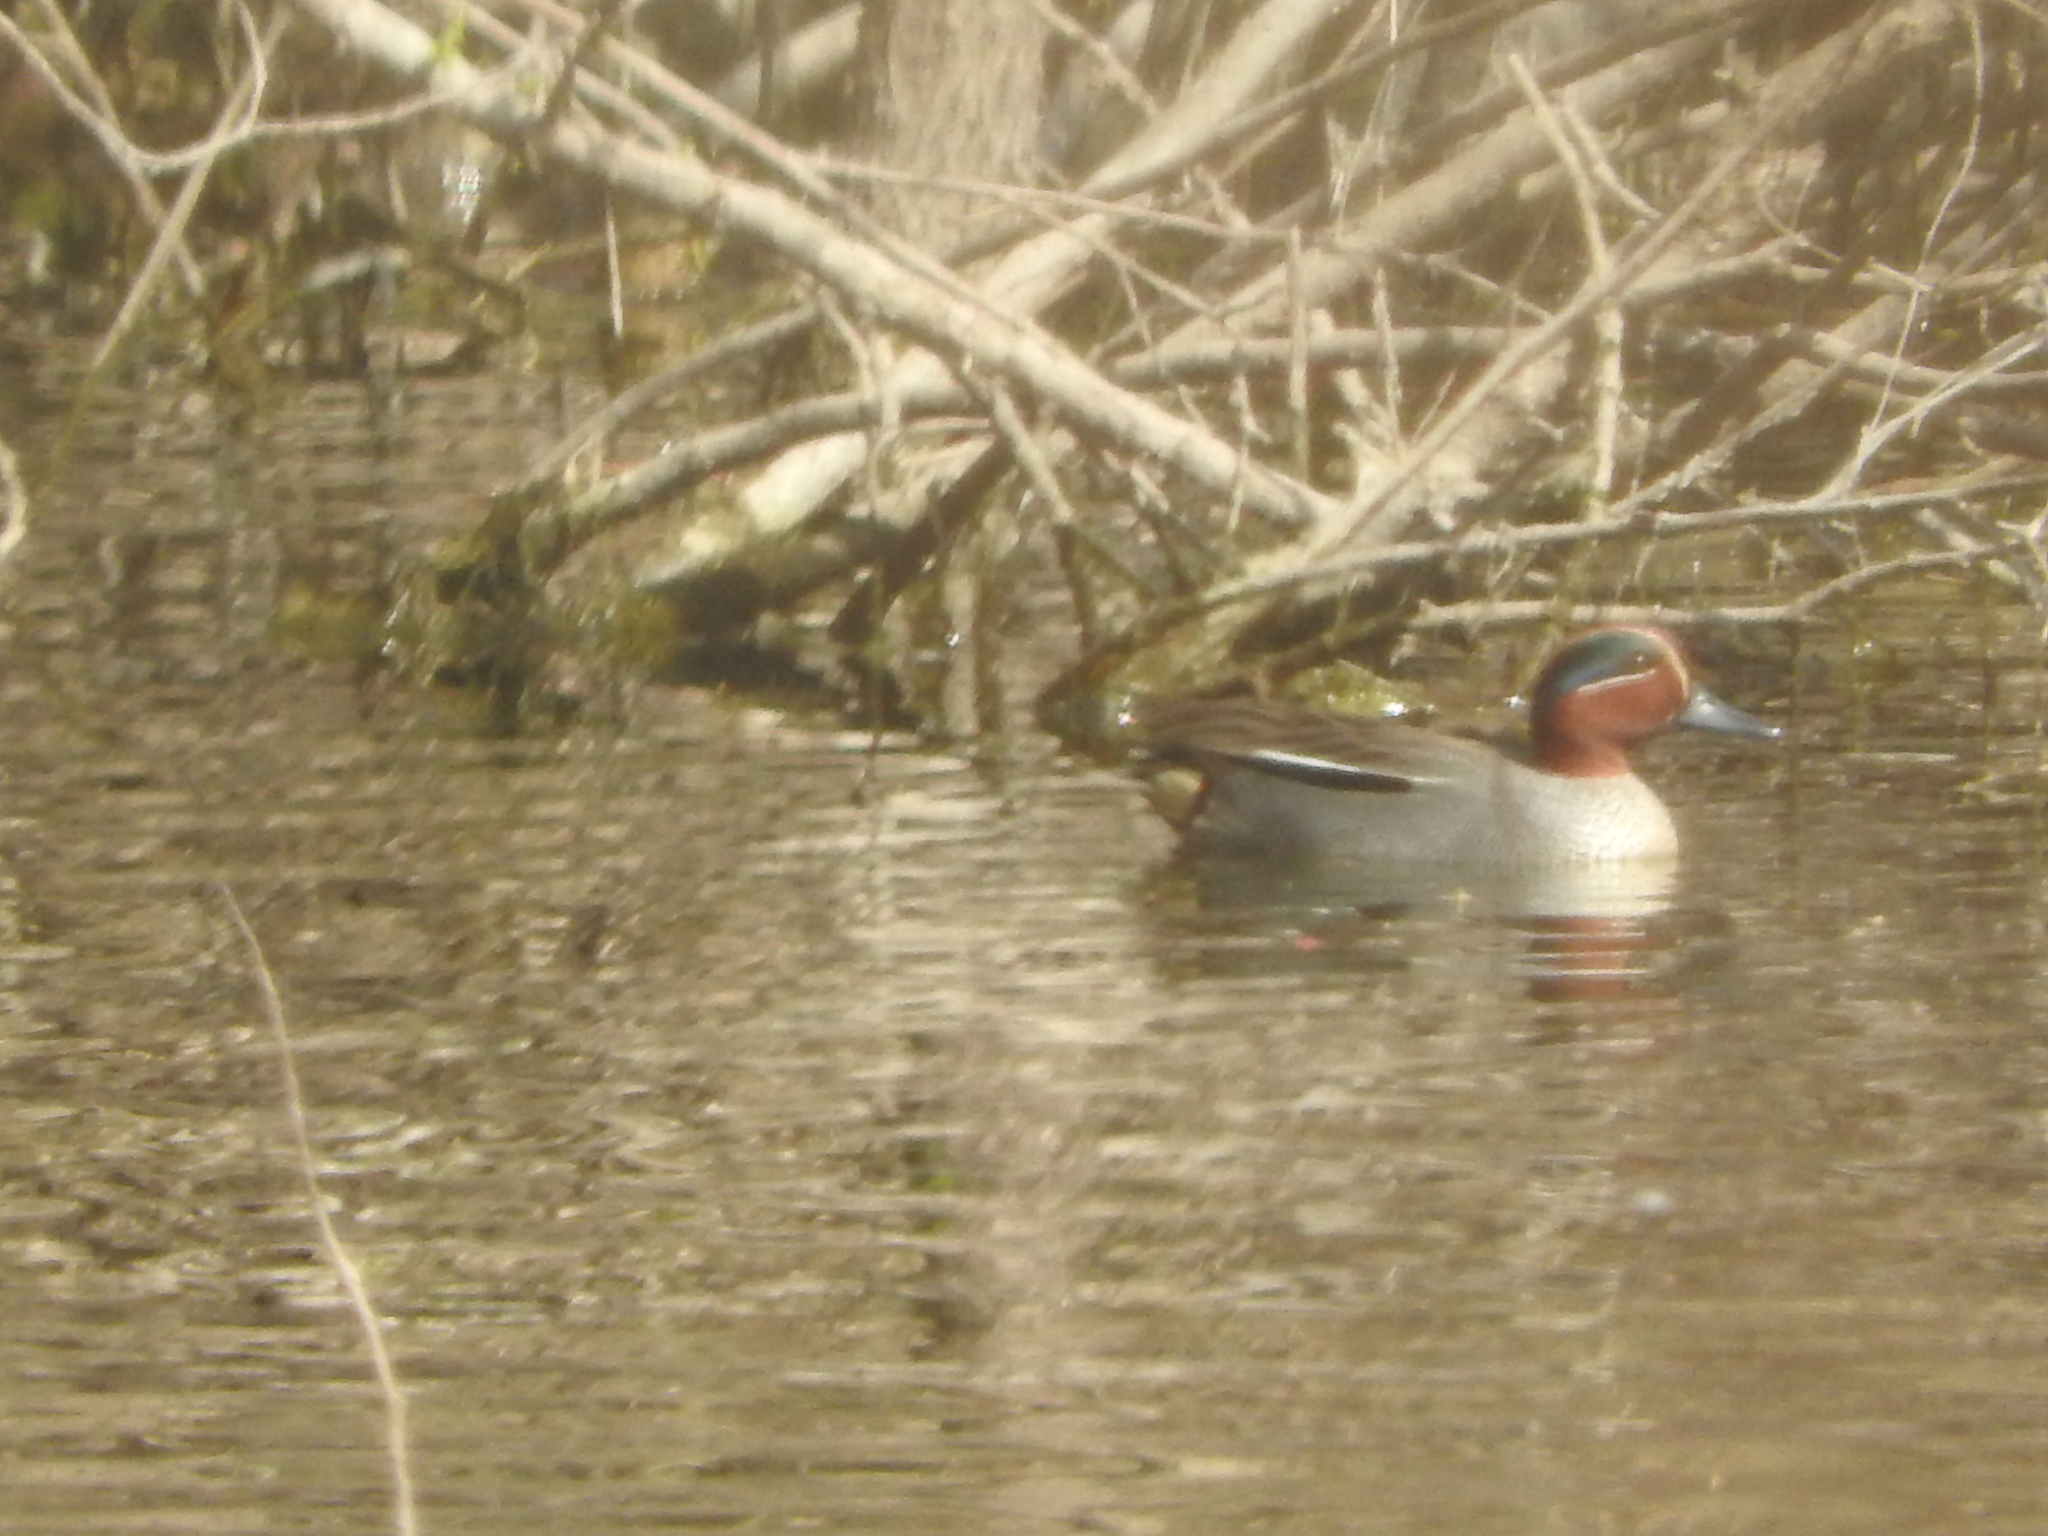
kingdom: Animalia
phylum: Chordata
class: Aves
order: Anseriformes
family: Anatidae
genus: Anas
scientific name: Anas crecca
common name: Eurasian teal
